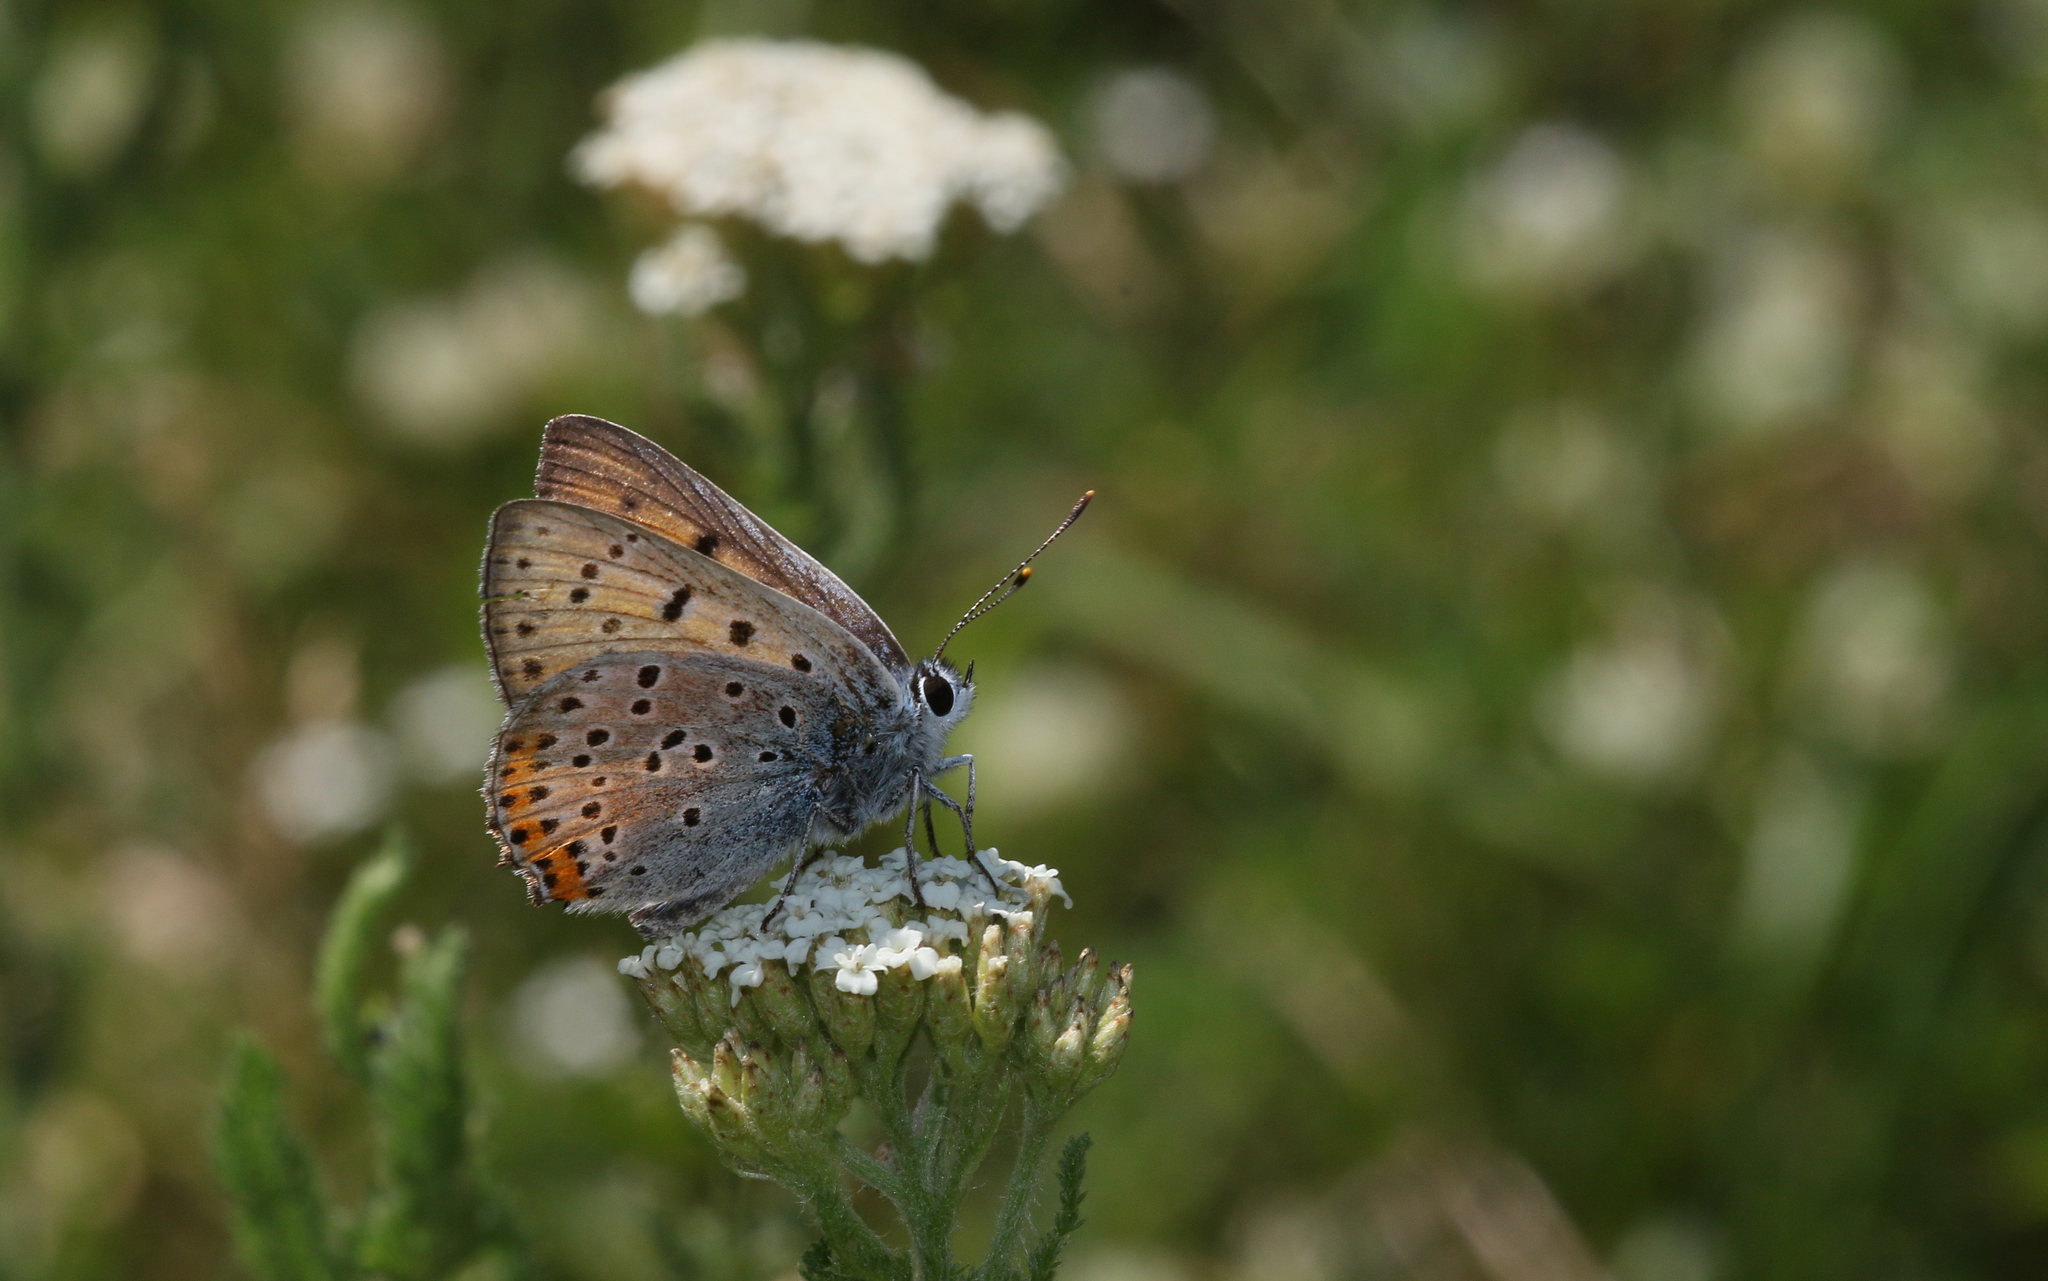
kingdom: Animalia
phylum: Arthropoda
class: Insecta
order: Lepidoptera
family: Lycaenidae
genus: Lycaena
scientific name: Lycaena alciphron
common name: Purple-shot copper
